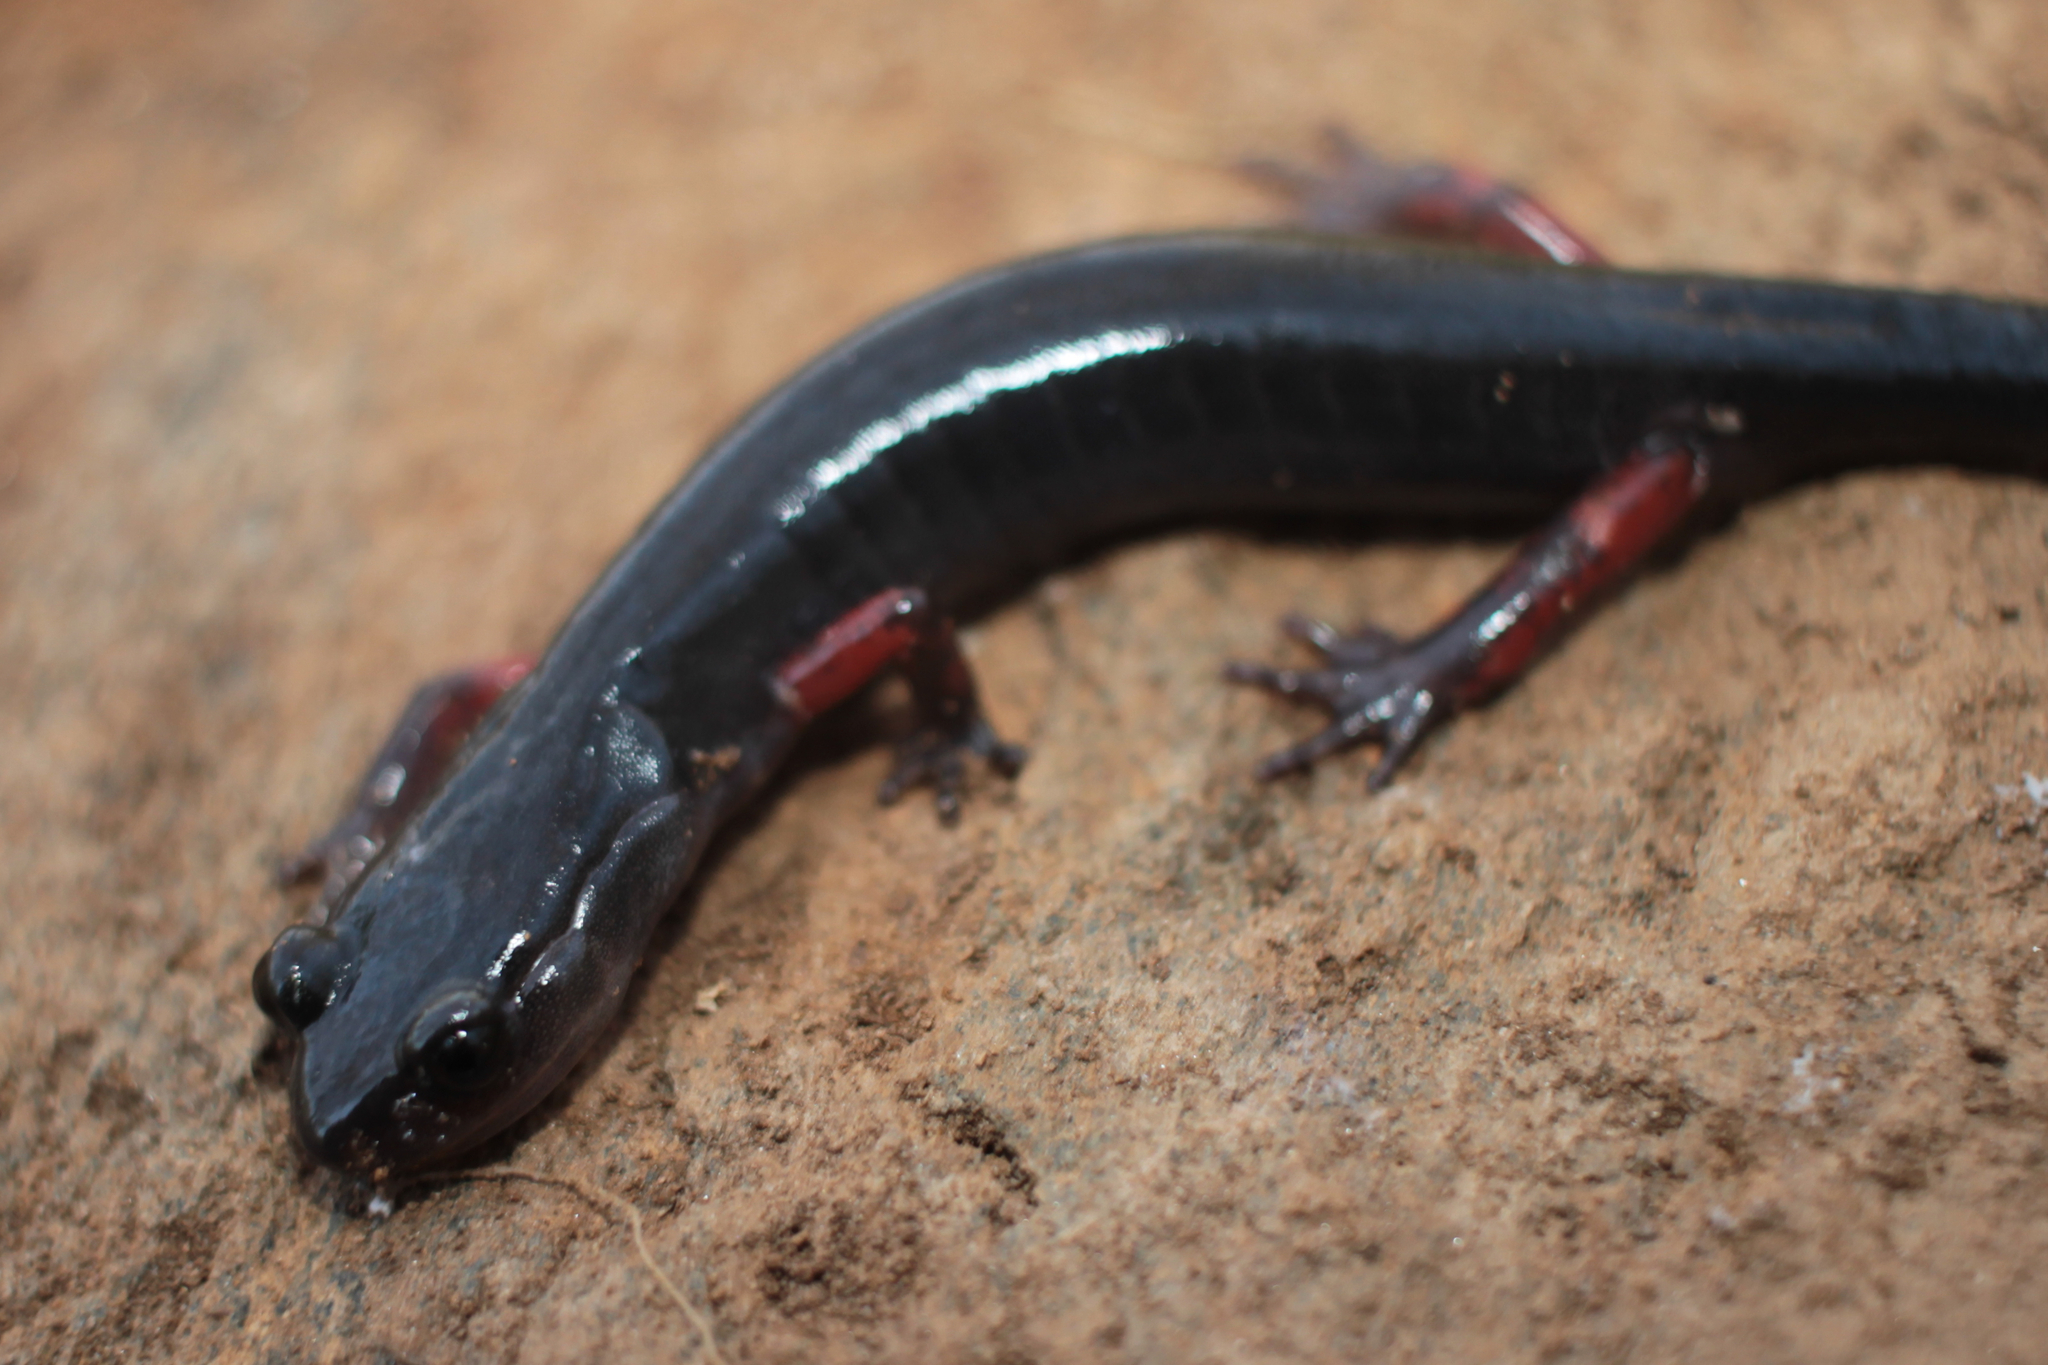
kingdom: Animalia
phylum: Chordata
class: Amphibia
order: Caudata
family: Plethodontidae
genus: Plethodon
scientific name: Plethodon shermani
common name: Red-legged salamander
